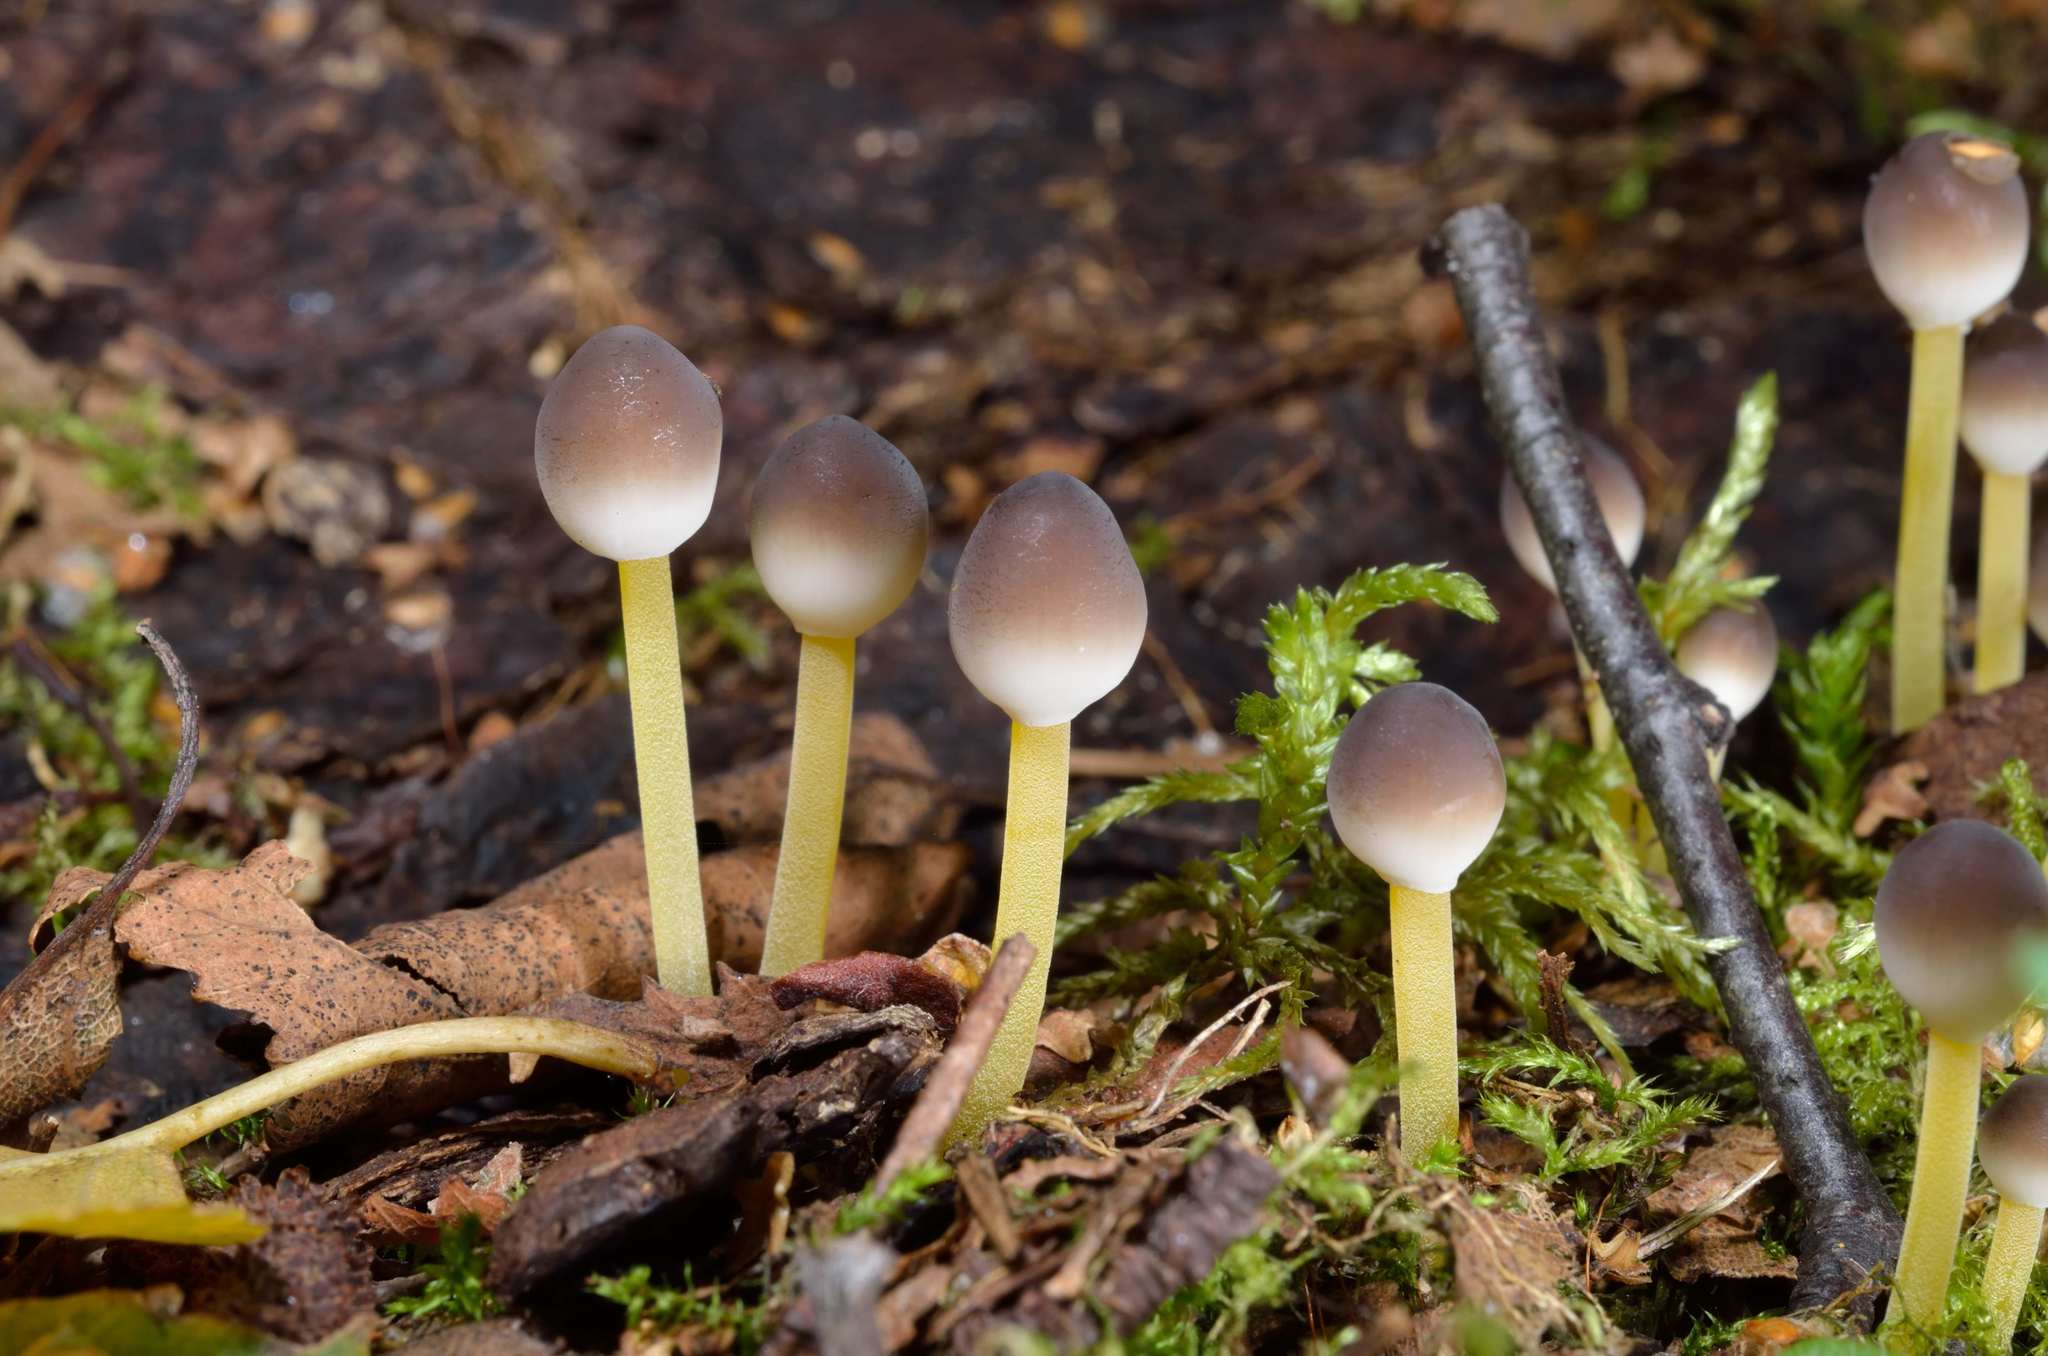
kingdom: Fungi
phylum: Basidiomycota
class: Agaricomycetes
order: Agaricales
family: Mycenaceae
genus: Mycena
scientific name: Mycena epipterygia
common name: Yellowleg bonnet
